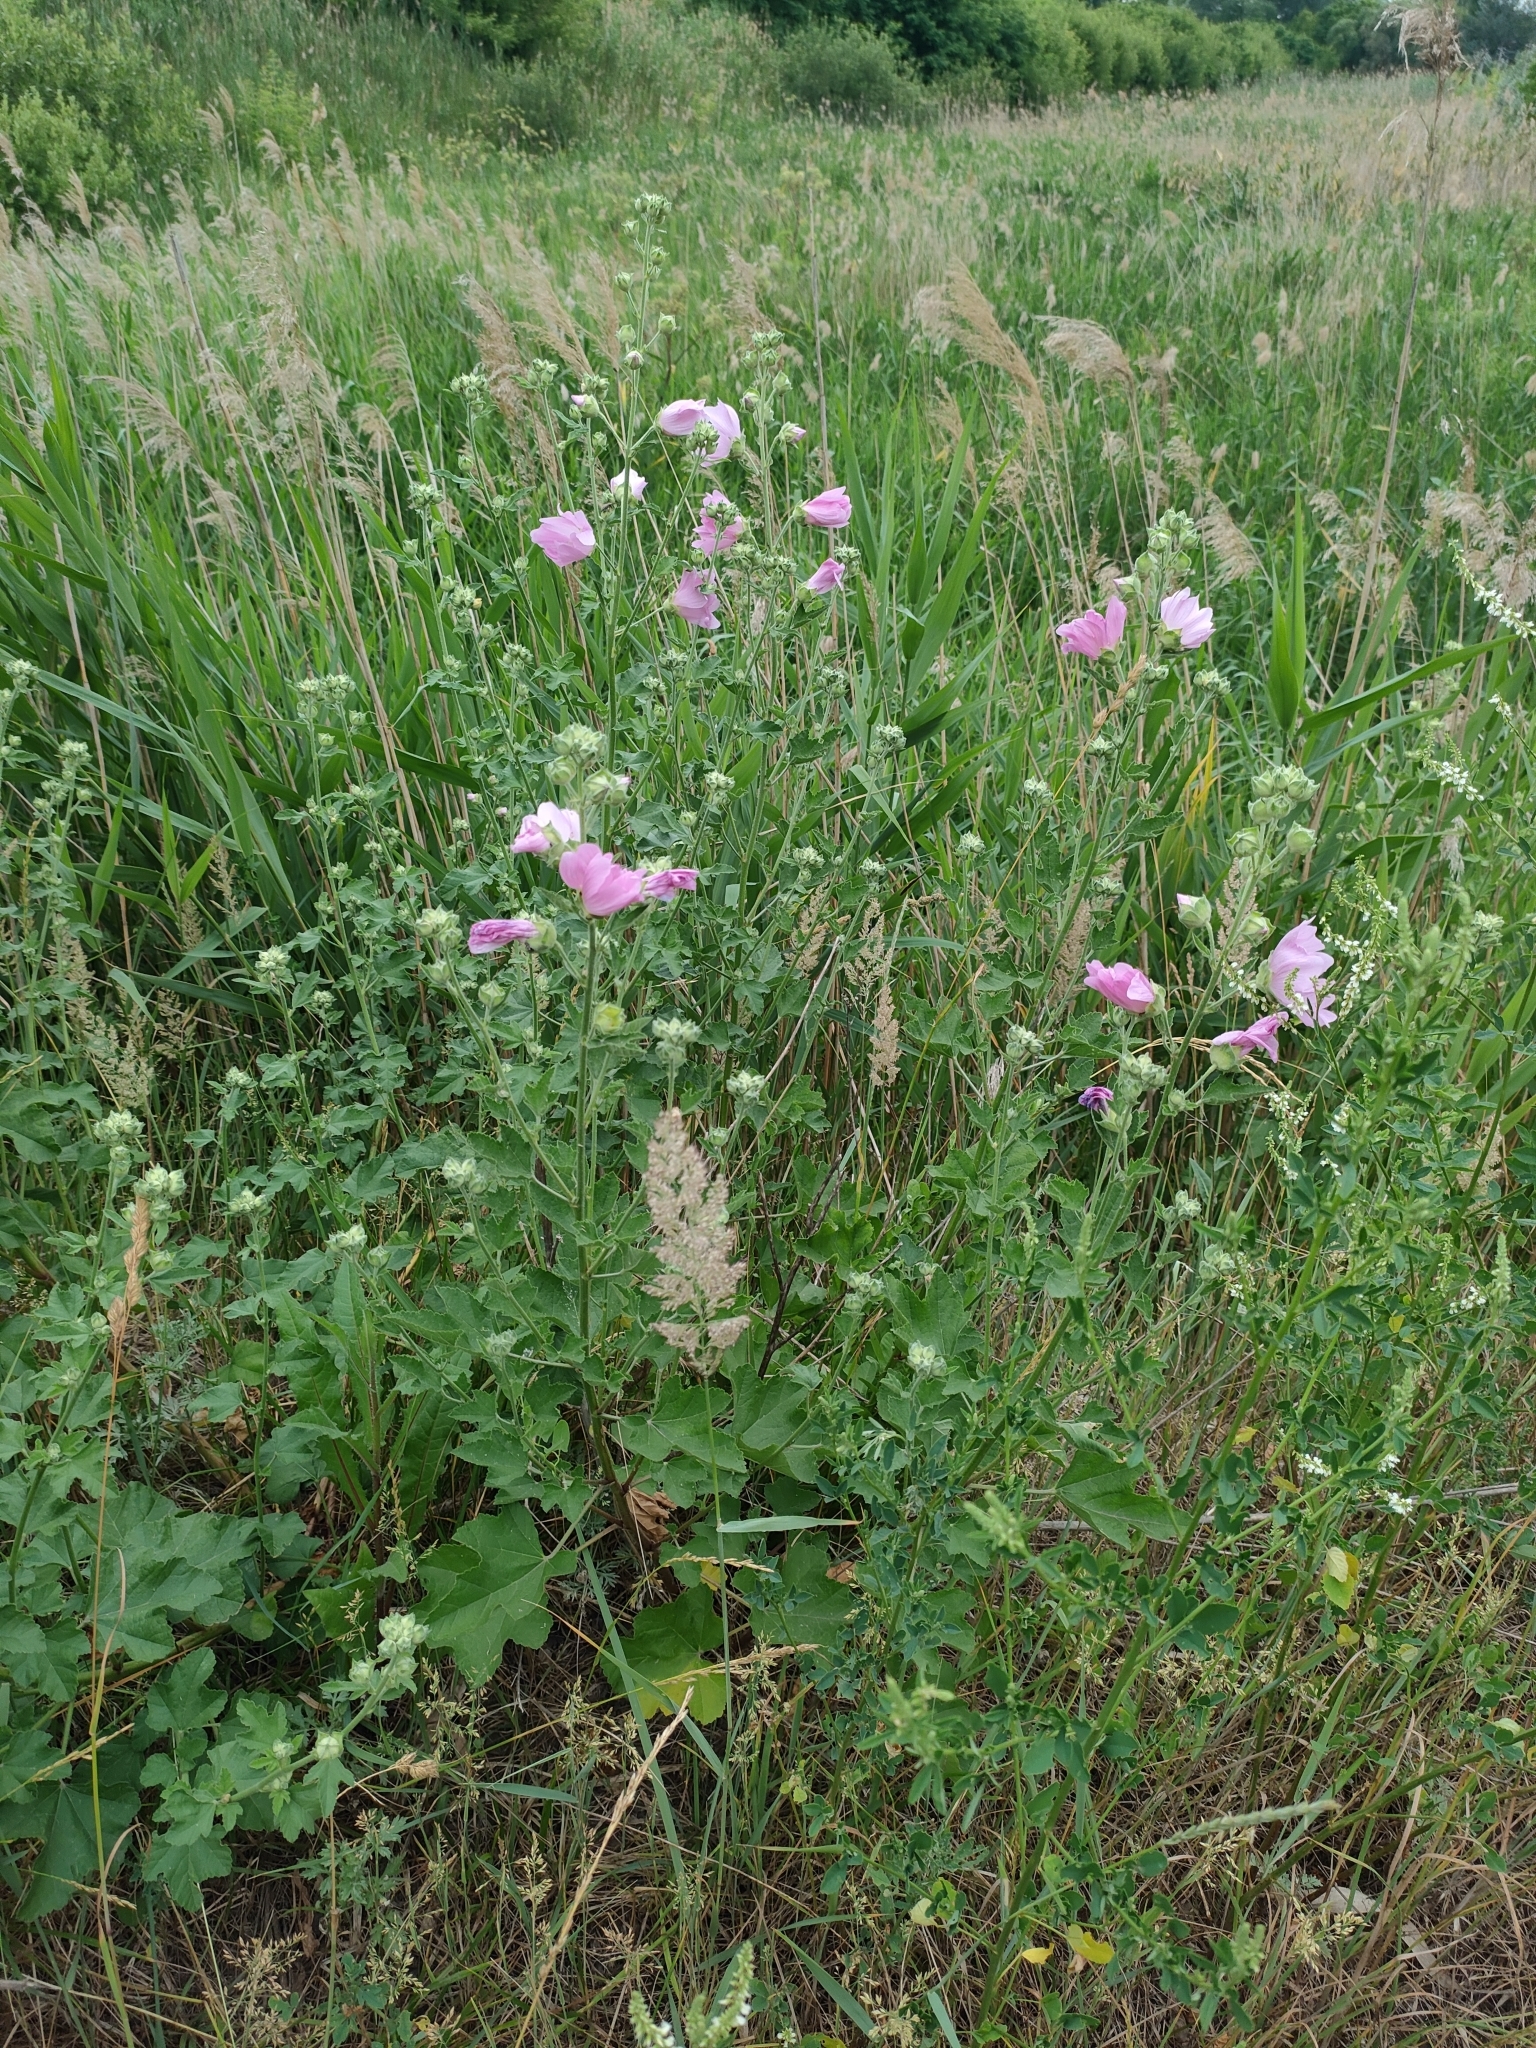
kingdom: Plantae
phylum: Tracheophyta
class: Magnoliopsida
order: Malvales
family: Malvaceae
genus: Malva
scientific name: Malva thuringiaca
